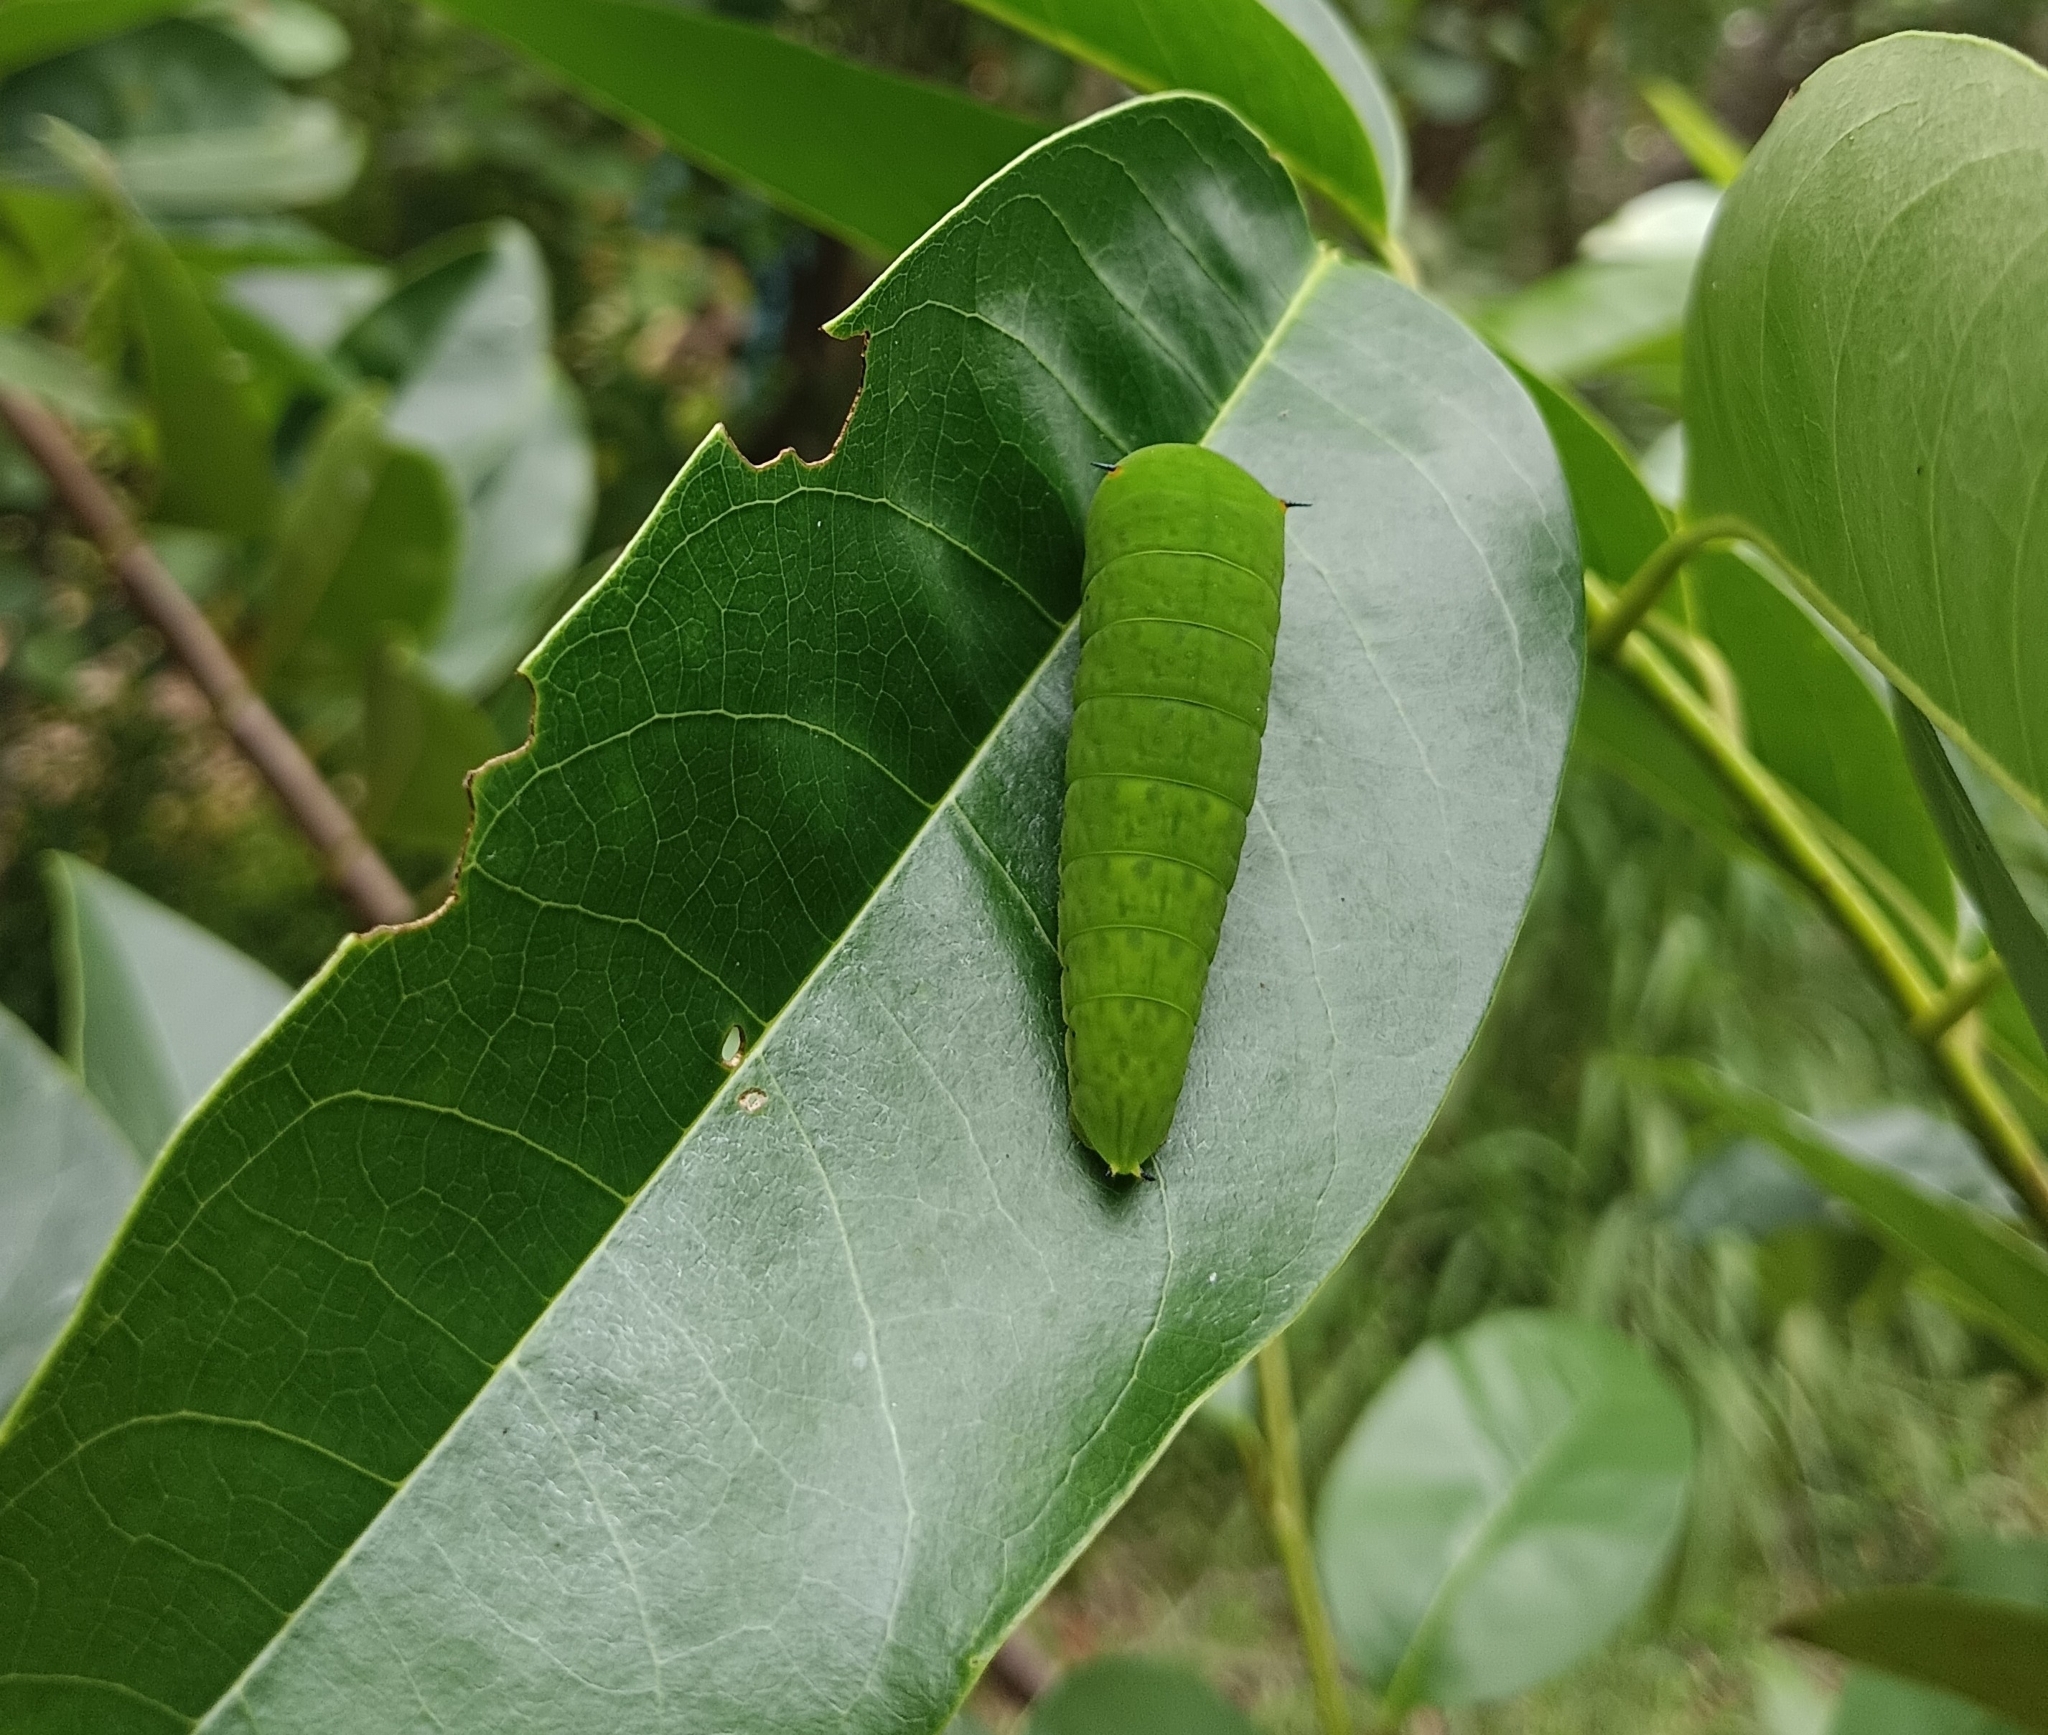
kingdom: Animalia
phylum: Arthropoda
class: Insecta
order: Lepidoptera
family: Papilionidae
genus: Graphium
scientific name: Graphium agamemnon
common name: Tailed jay
